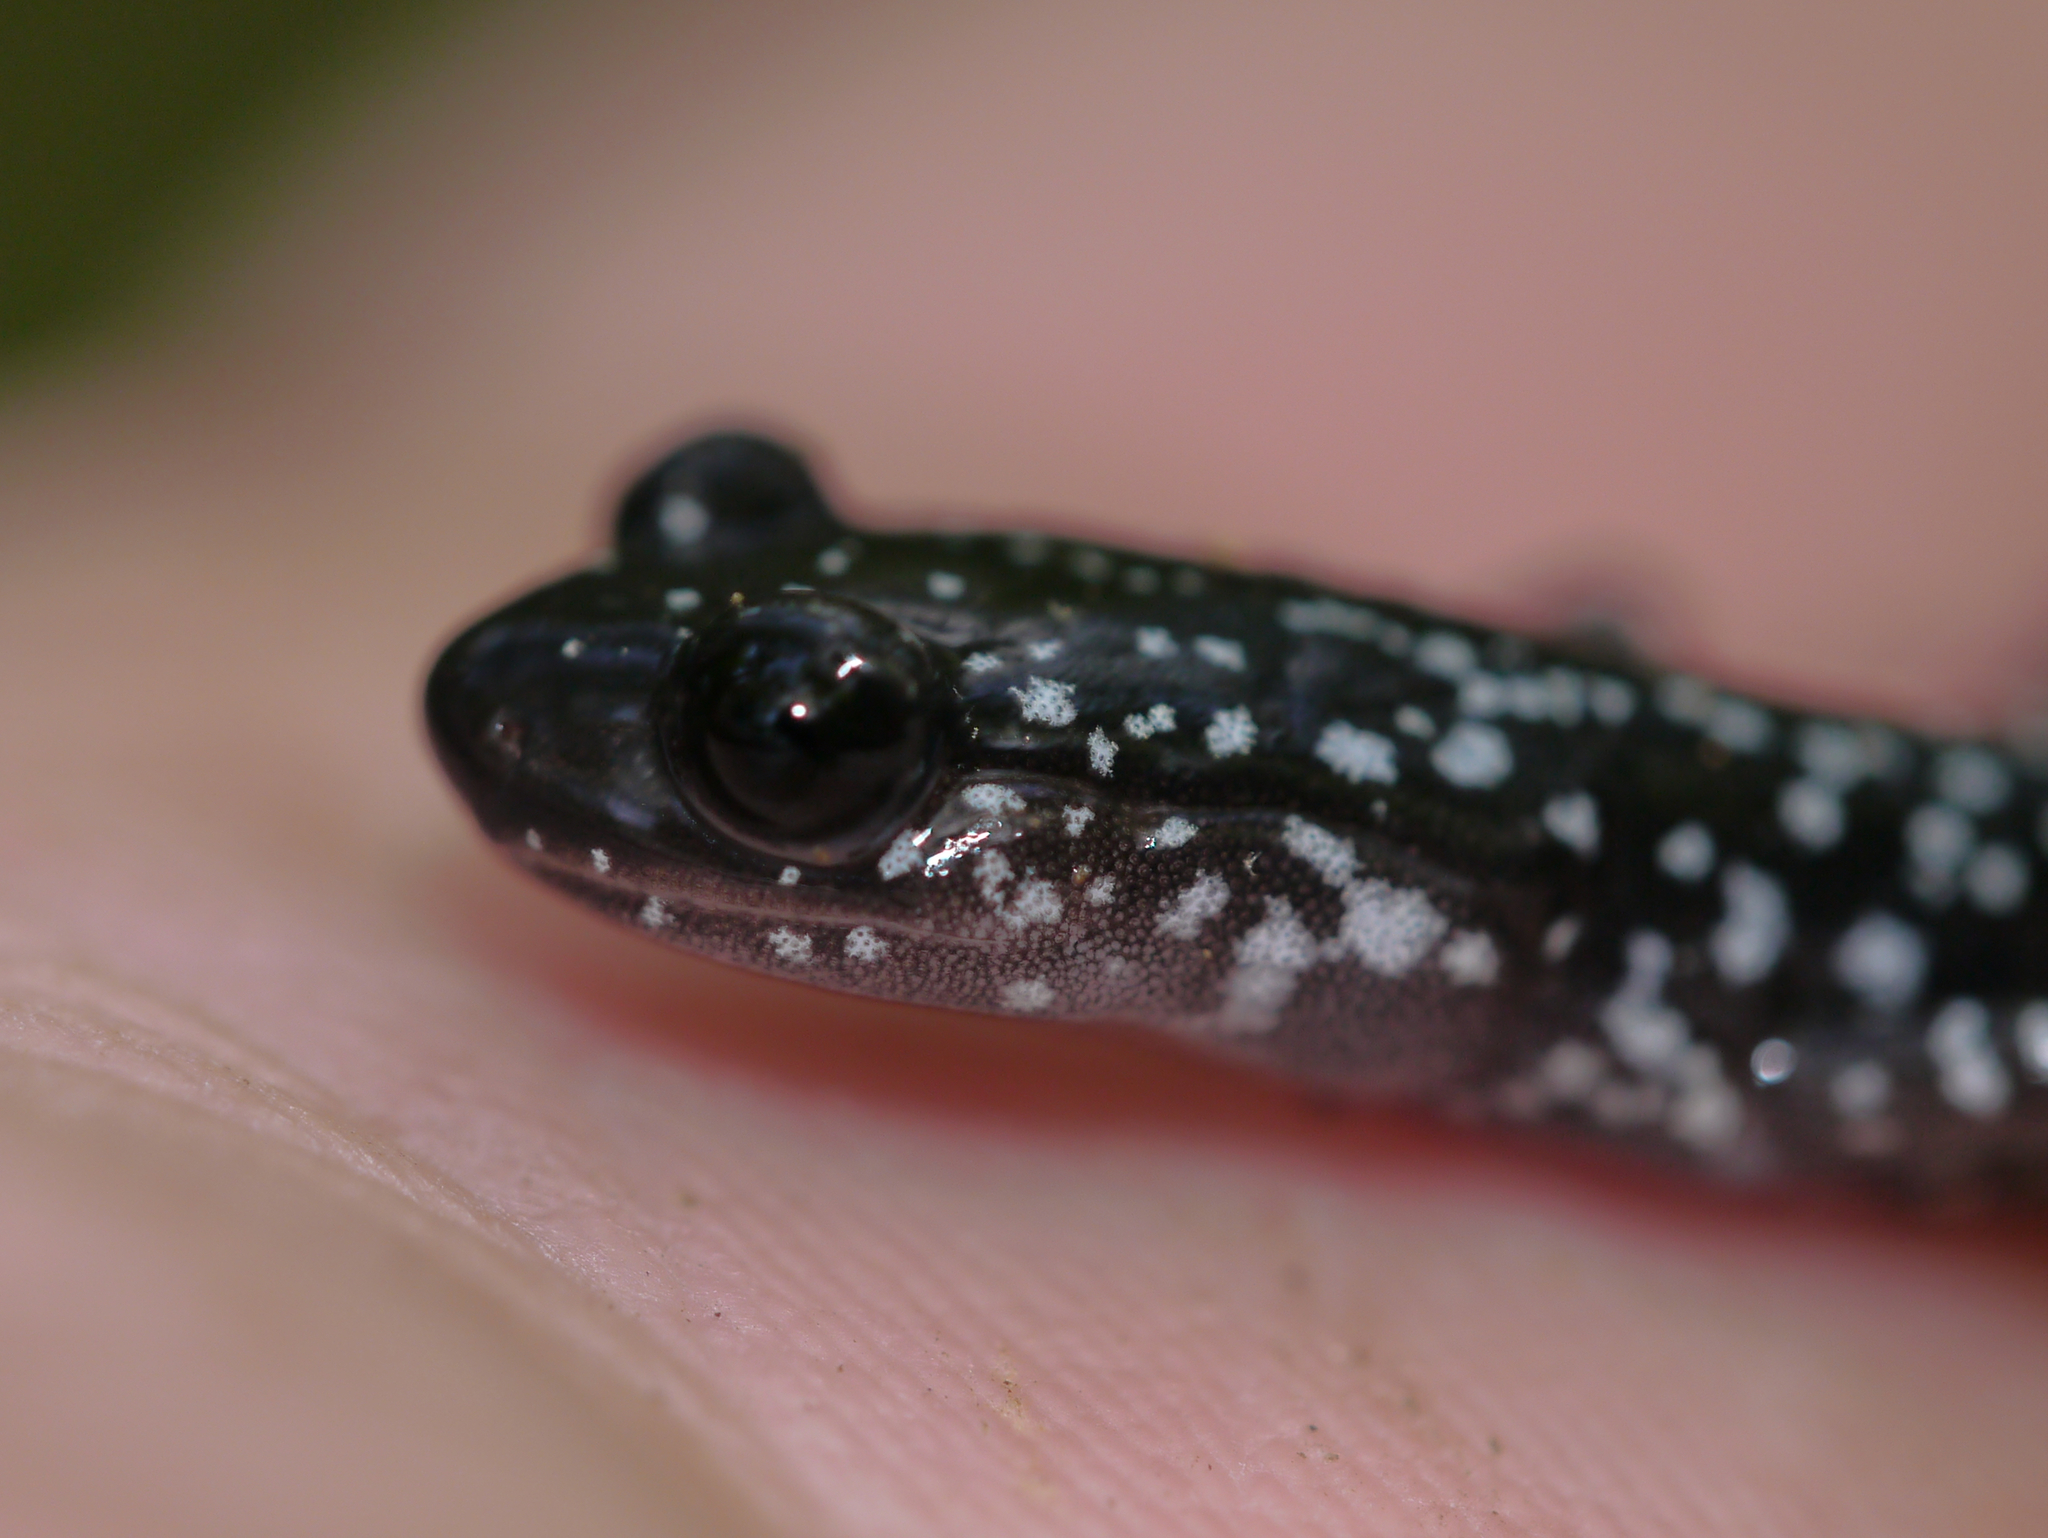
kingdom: Animalia
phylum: Chordata
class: Amphibia
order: Caudata
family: Plethodontidae
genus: Plethodon
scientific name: Plethodon cylindraceus
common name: White-spotted slimy salamander
